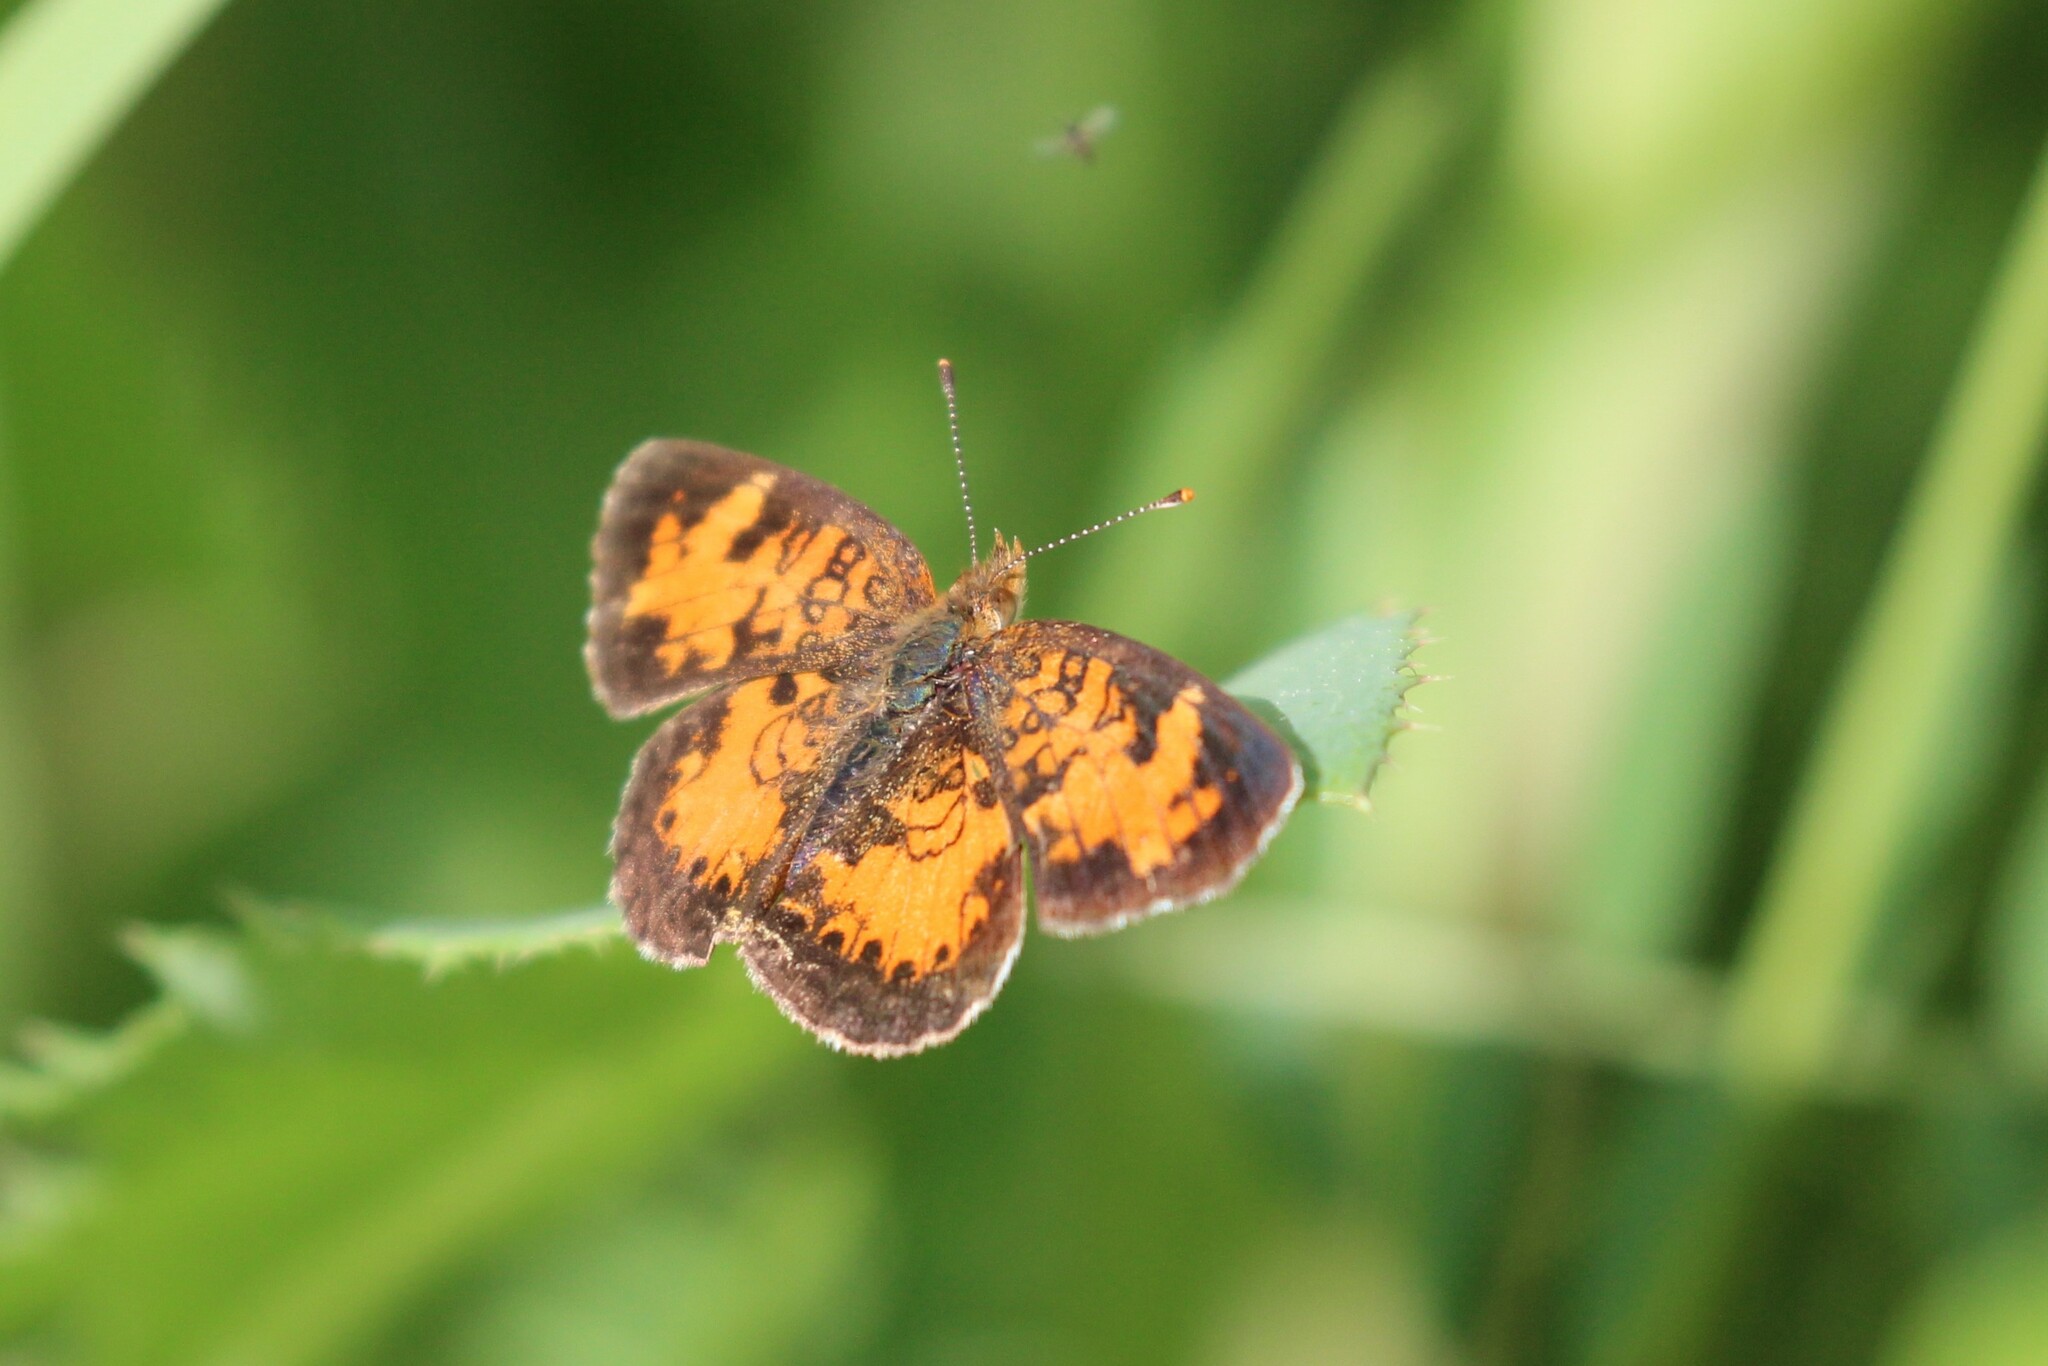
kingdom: Animalia
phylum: Arthropoda
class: Insecta
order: Lepidoptera
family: Nymphalidae
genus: Phyciodes
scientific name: Phyciodes tharos
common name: Pearl crescent
